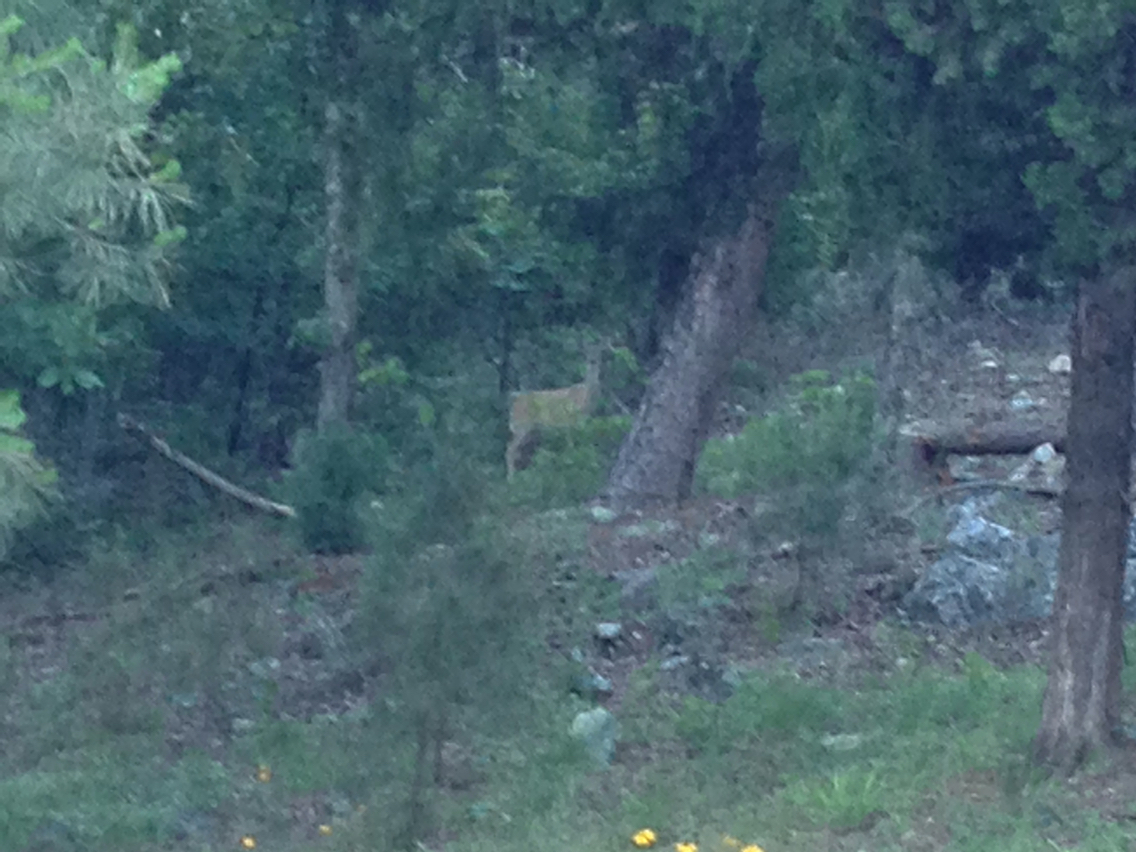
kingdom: Animalia
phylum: Chordata
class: Mammalia
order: Artiodactyla
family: Cervidae
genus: Odocoileus
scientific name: Odocoileus virginianus
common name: White-tailed deer
